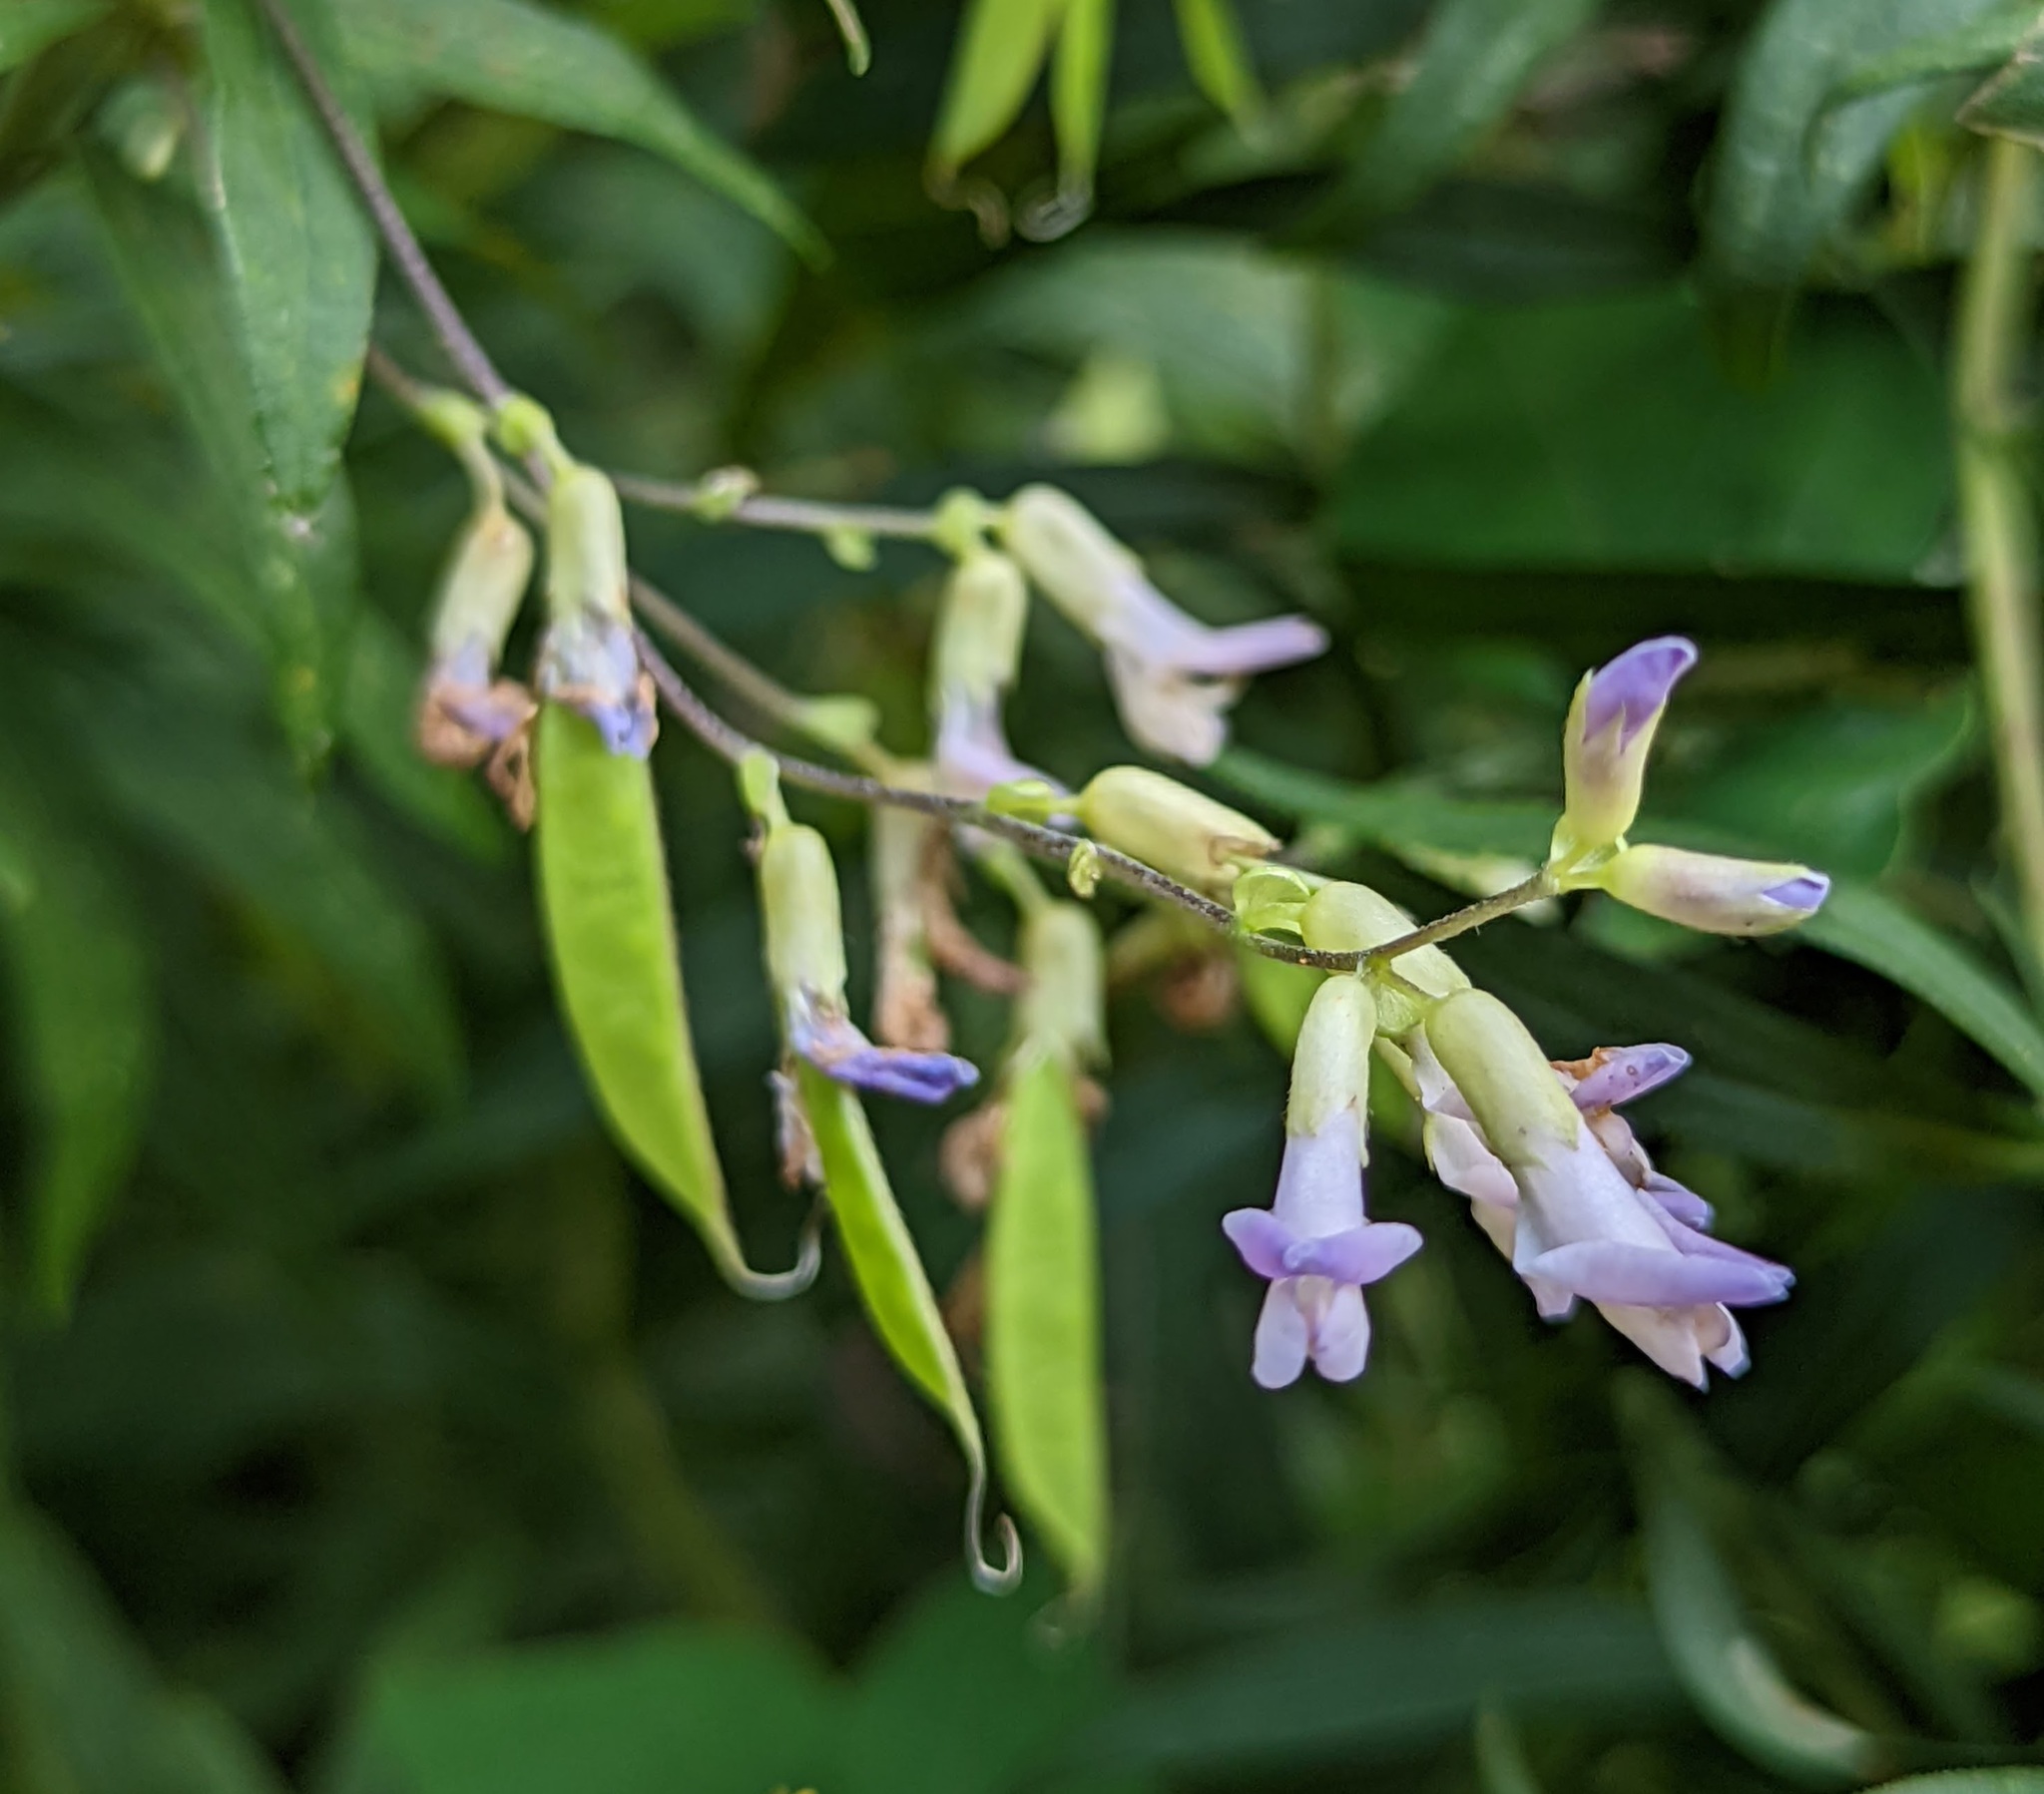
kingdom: Plantae
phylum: Tracheophyta
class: Magnoliopsida
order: Fabales
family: Fabaceae
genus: Amphicarpaea
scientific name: Amphicarpaea bracteata
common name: American hog peanut
